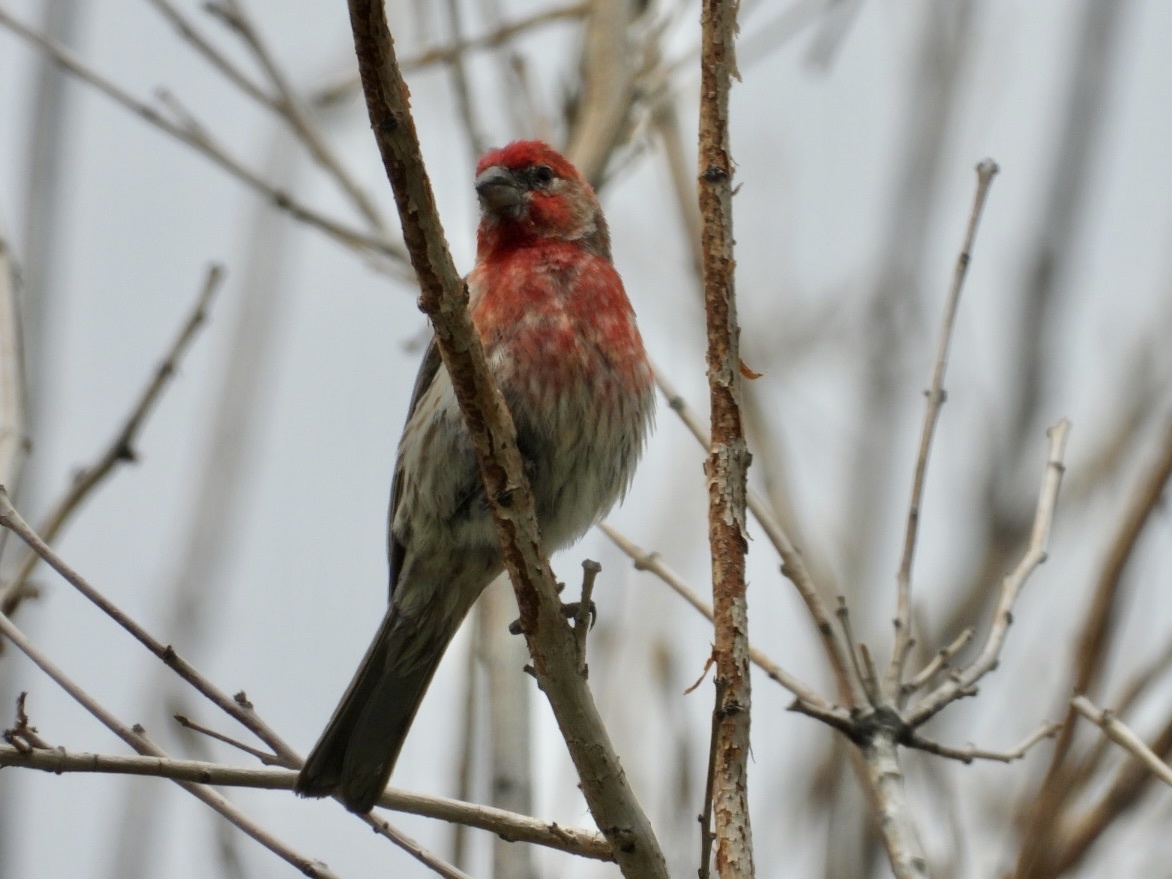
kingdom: Animalia
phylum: Chordata
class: Aves
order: Passeriformes
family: Fringillidae
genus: Haemorhous
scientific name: Haemorhous mexicanus
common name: House finch
